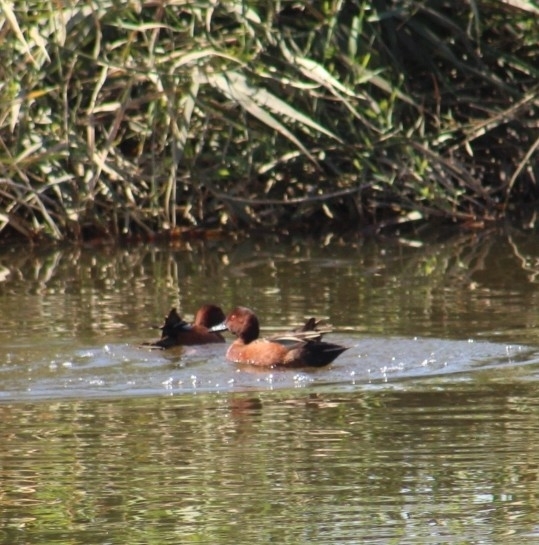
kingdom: Animalia
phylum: Chordata
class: Aves
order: Anseriformes
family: Anatidae
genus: Spatula
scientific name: Spatula cyanoptera
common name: Cinnamon teal
